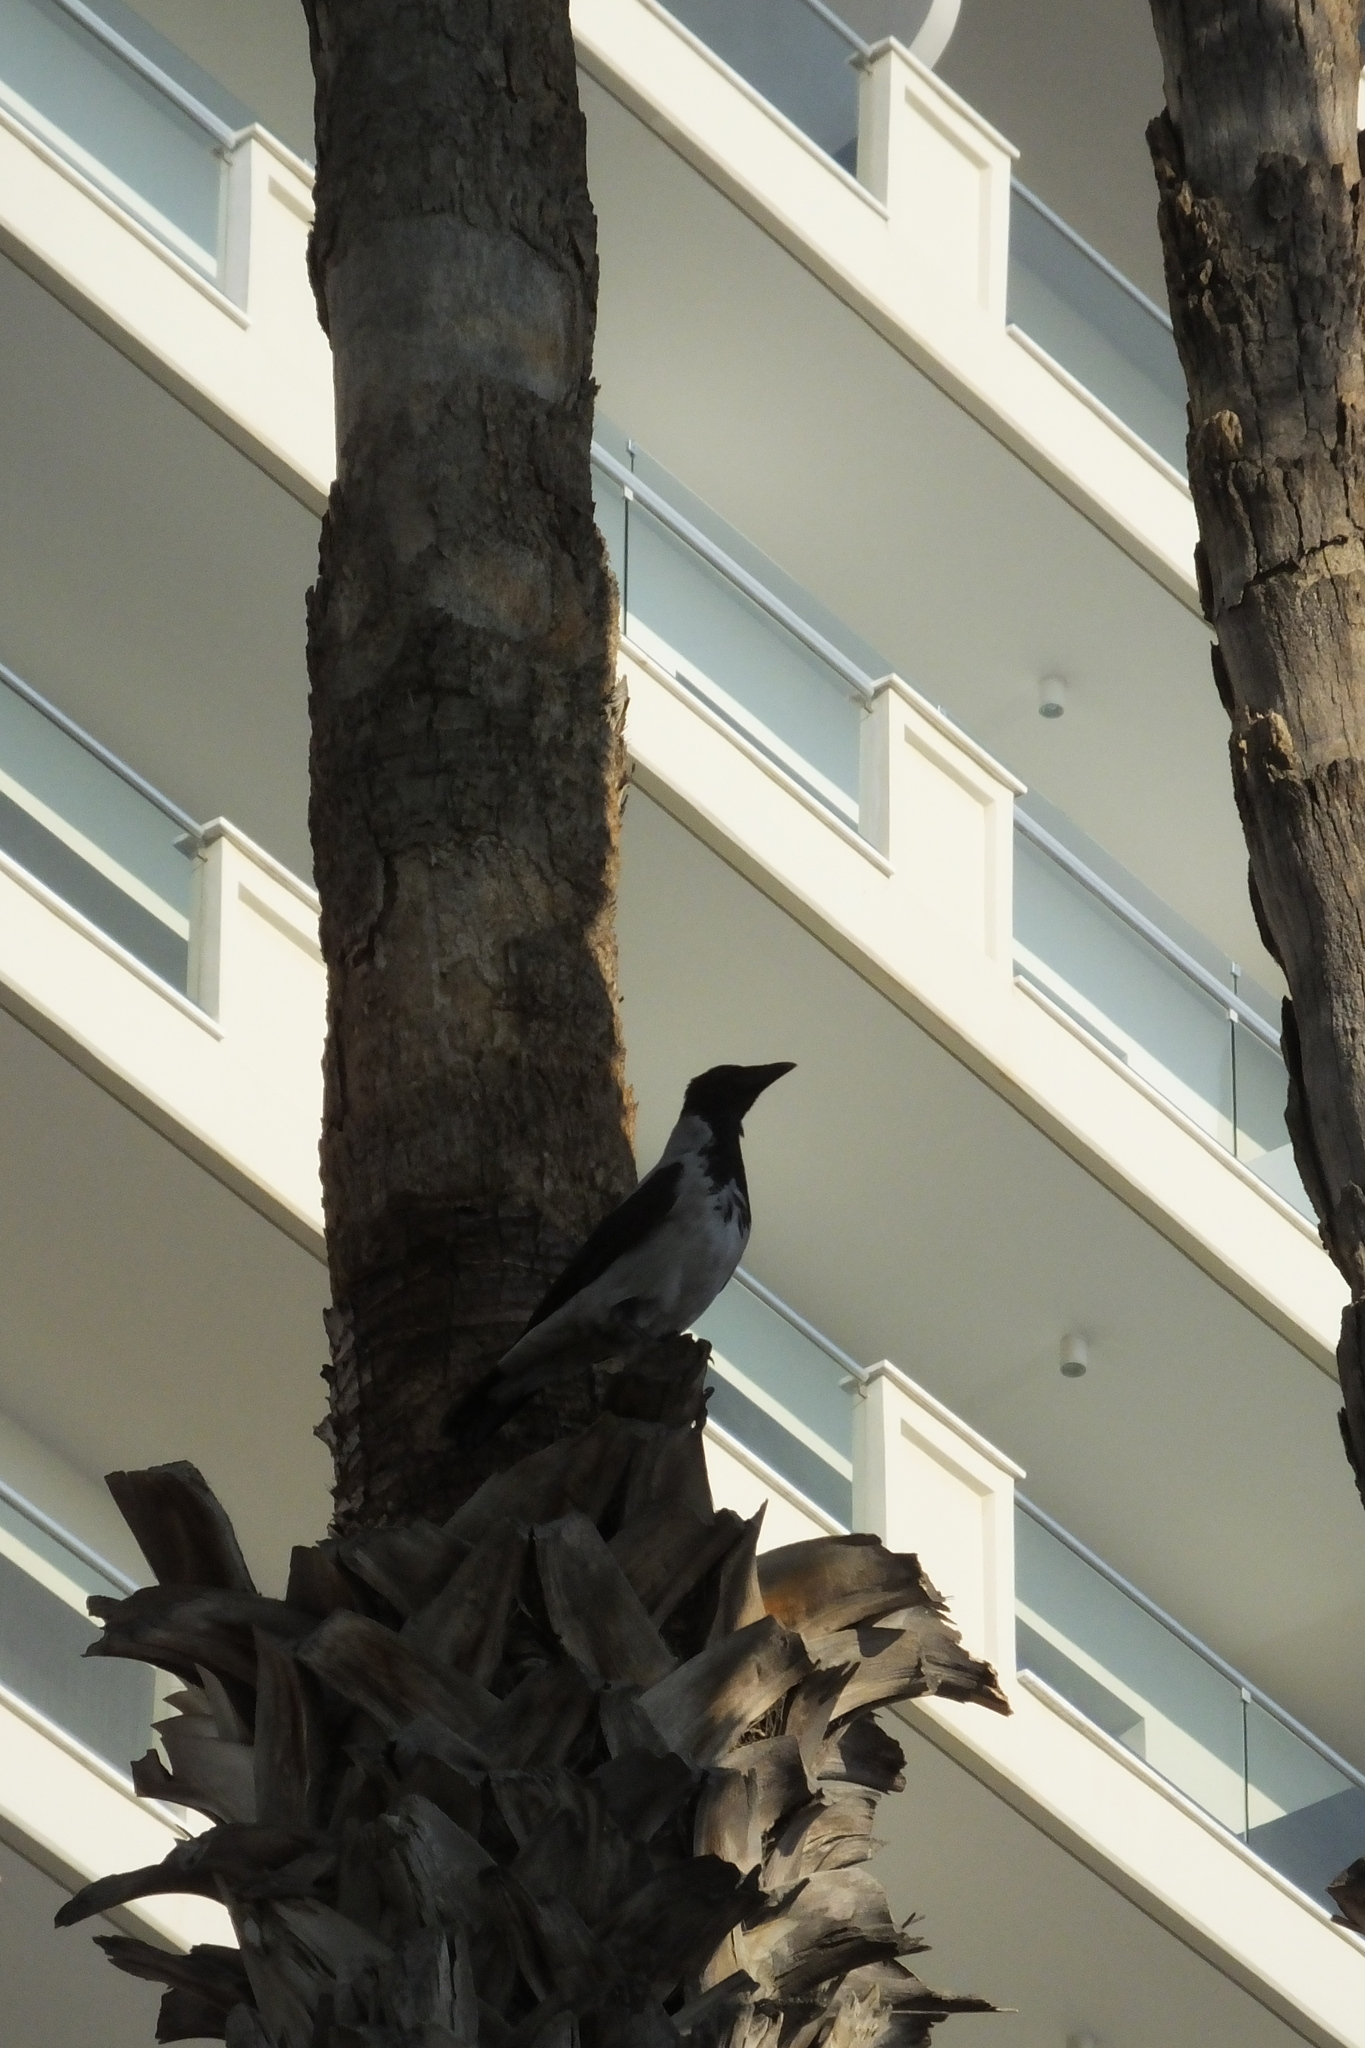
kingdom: Animalia
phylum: Chordata
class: Aves
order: Passeriformes
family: Corvidae
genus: Corvus
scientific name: Corvus cornix
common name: Hooded crow
